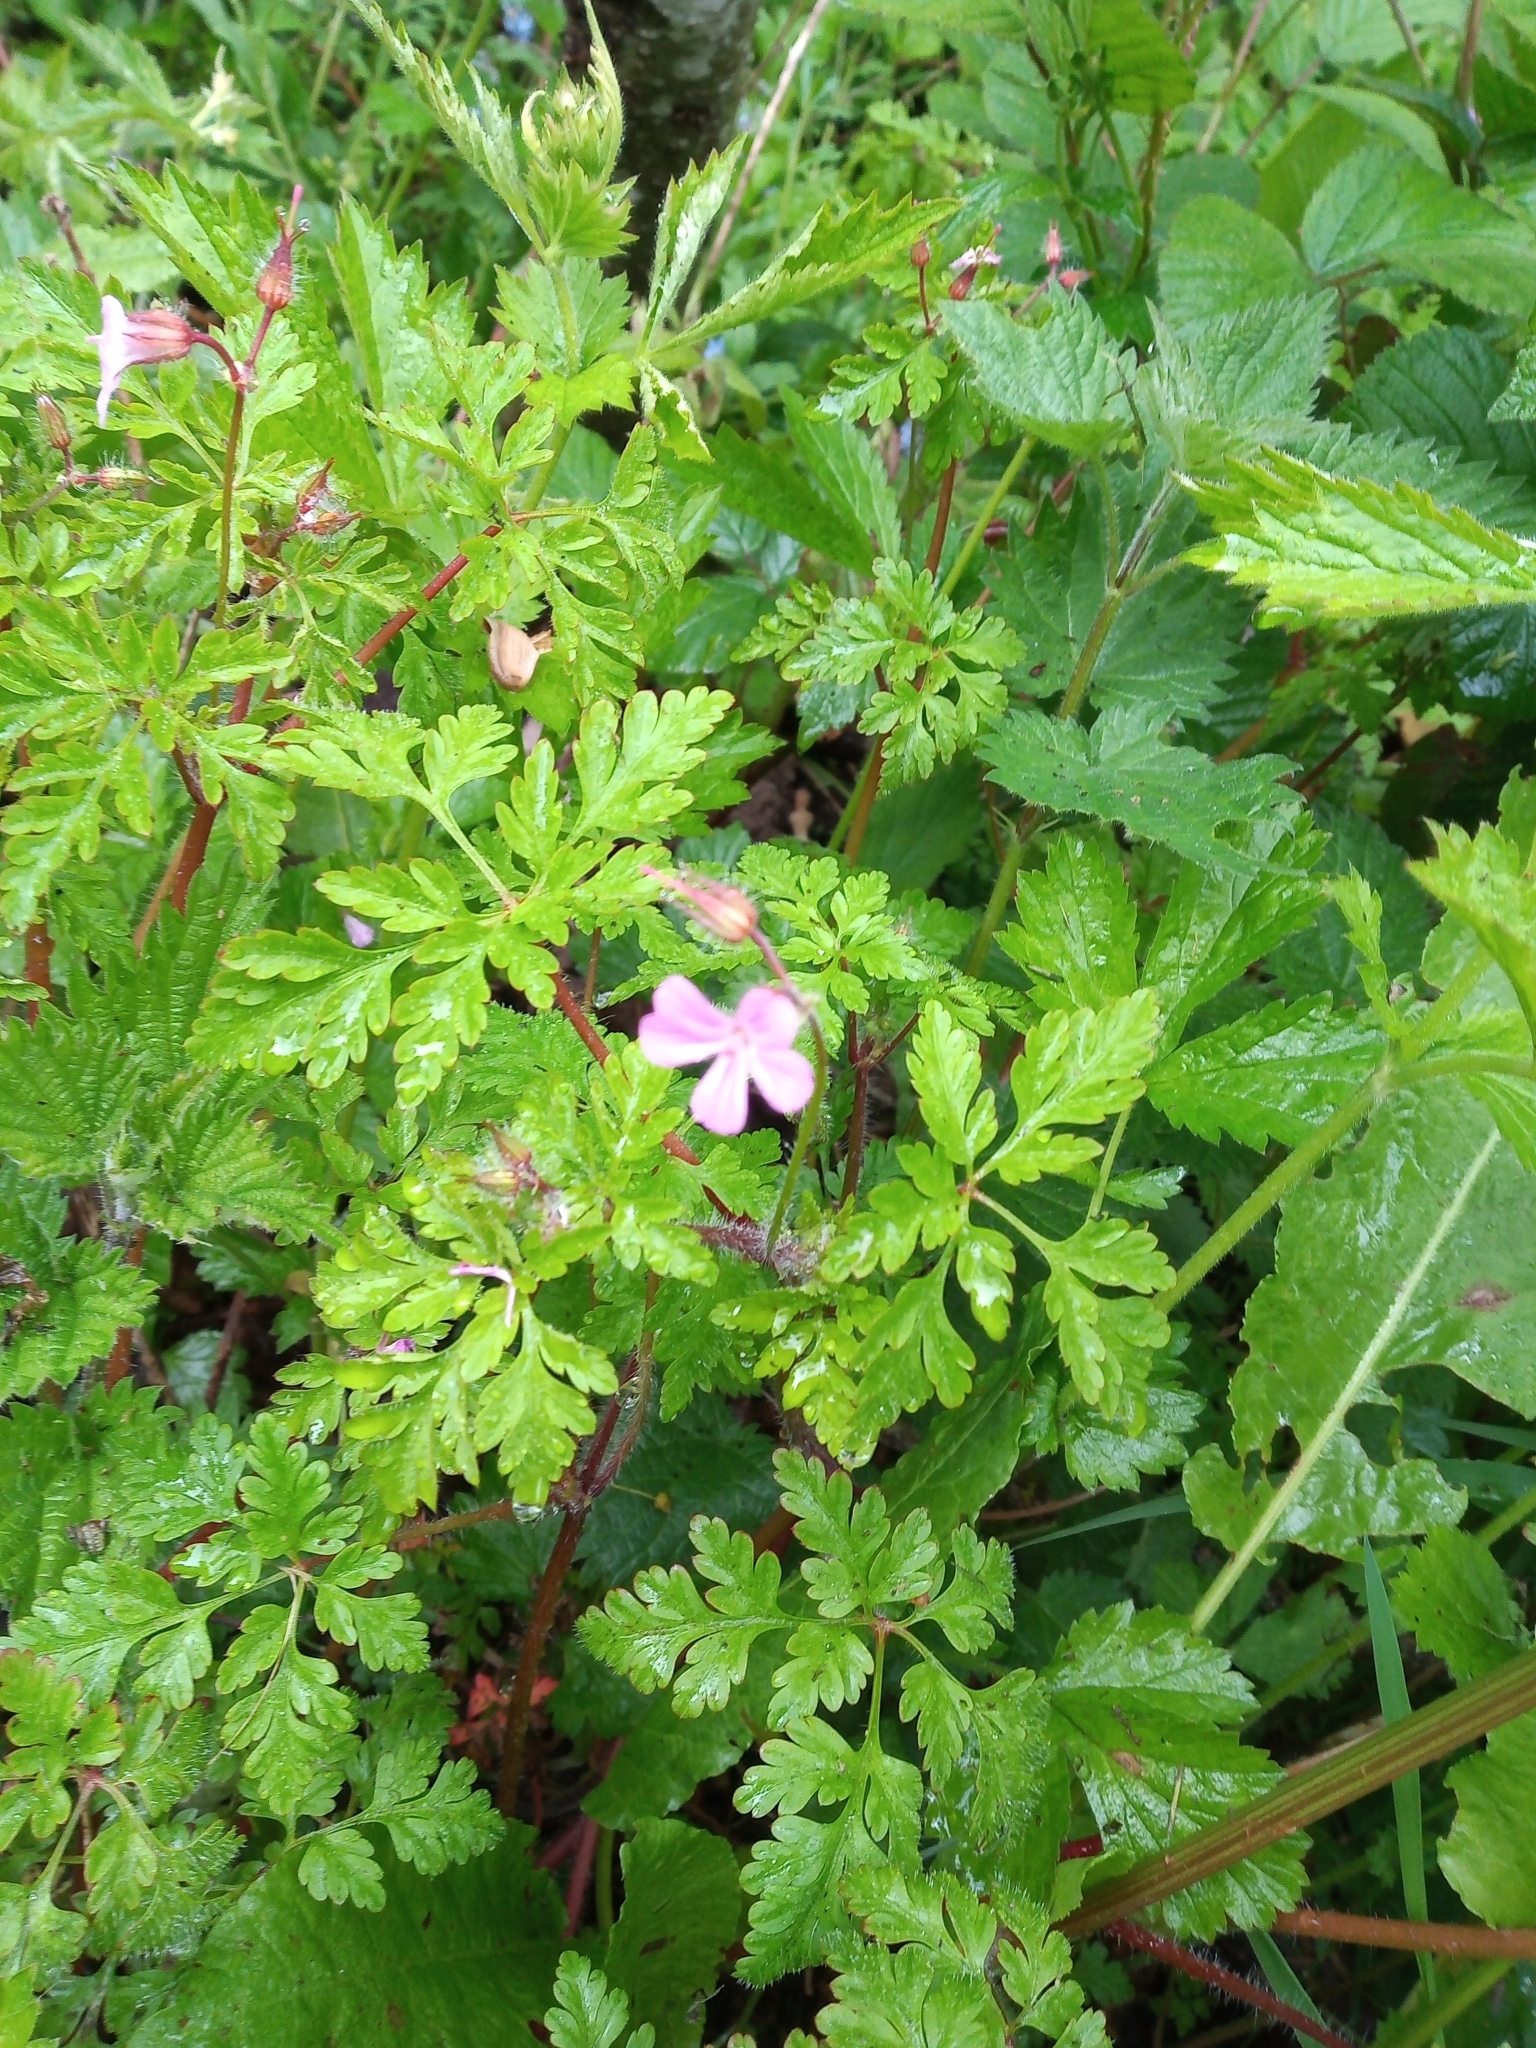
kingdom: Plantae
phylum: Tracheophyta
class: Magnoliopsida
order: Geraniales
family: Geraniaceae
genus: Geranium
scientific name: Geranium robertianum
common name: Herb-robert
